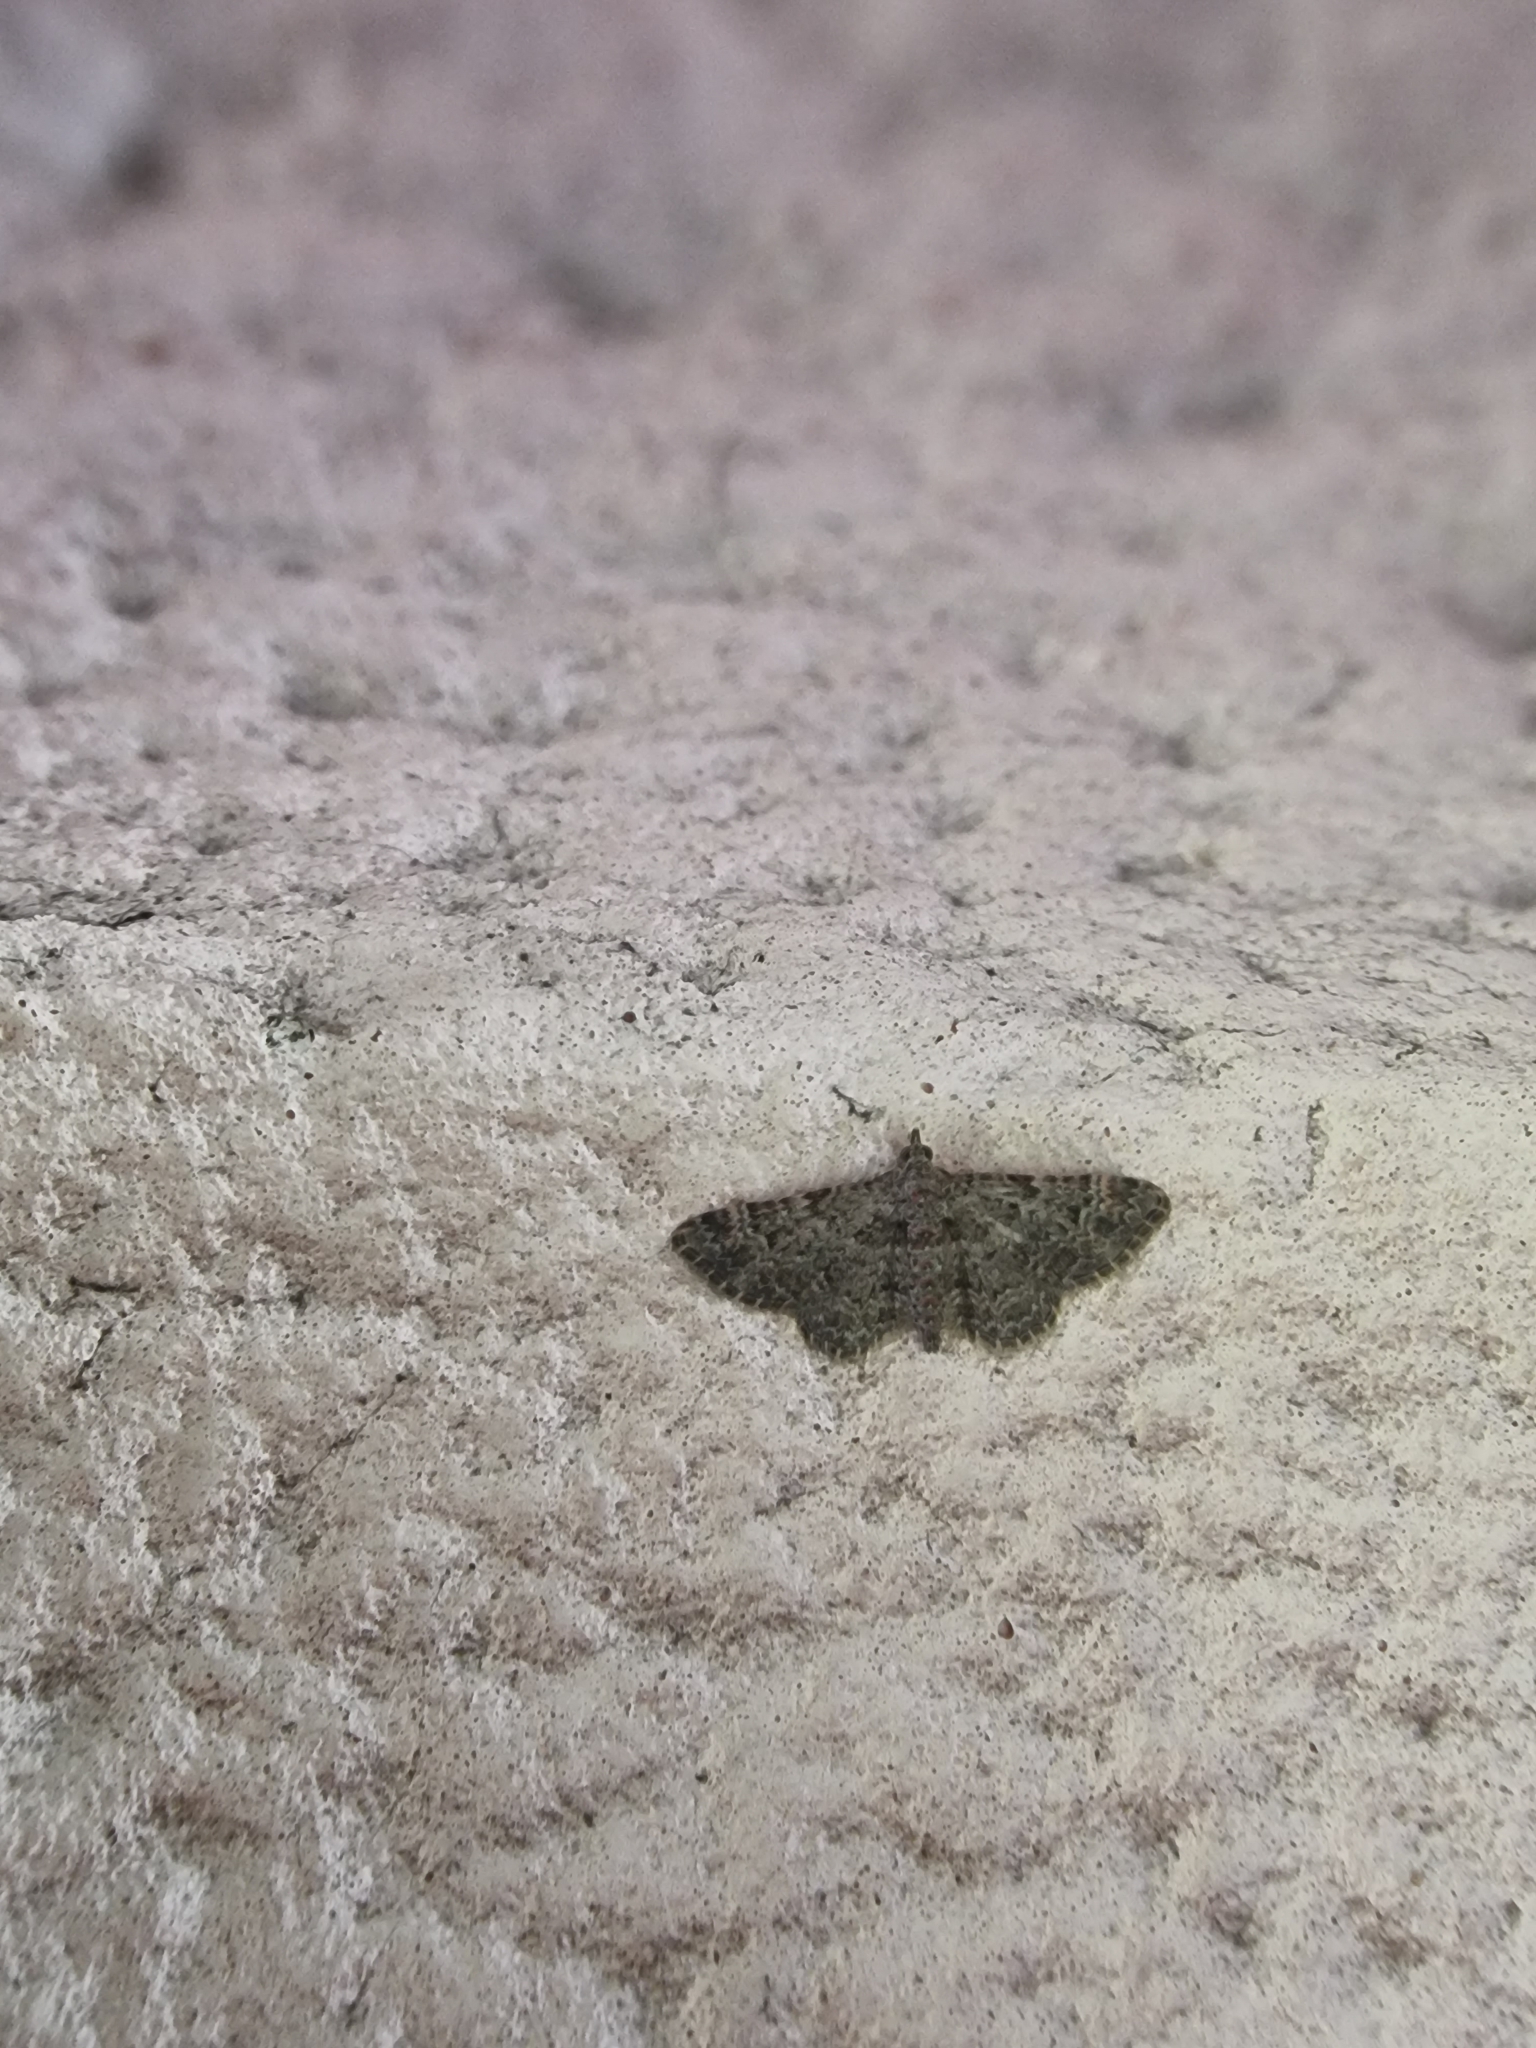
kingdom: Animalia
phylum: Arthropoda
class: Insecta
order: Lepidoptera
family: Geometridae
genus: Gymnoscelis
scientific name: Gymnoscelis rufifasciata
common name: Double-striped pug
